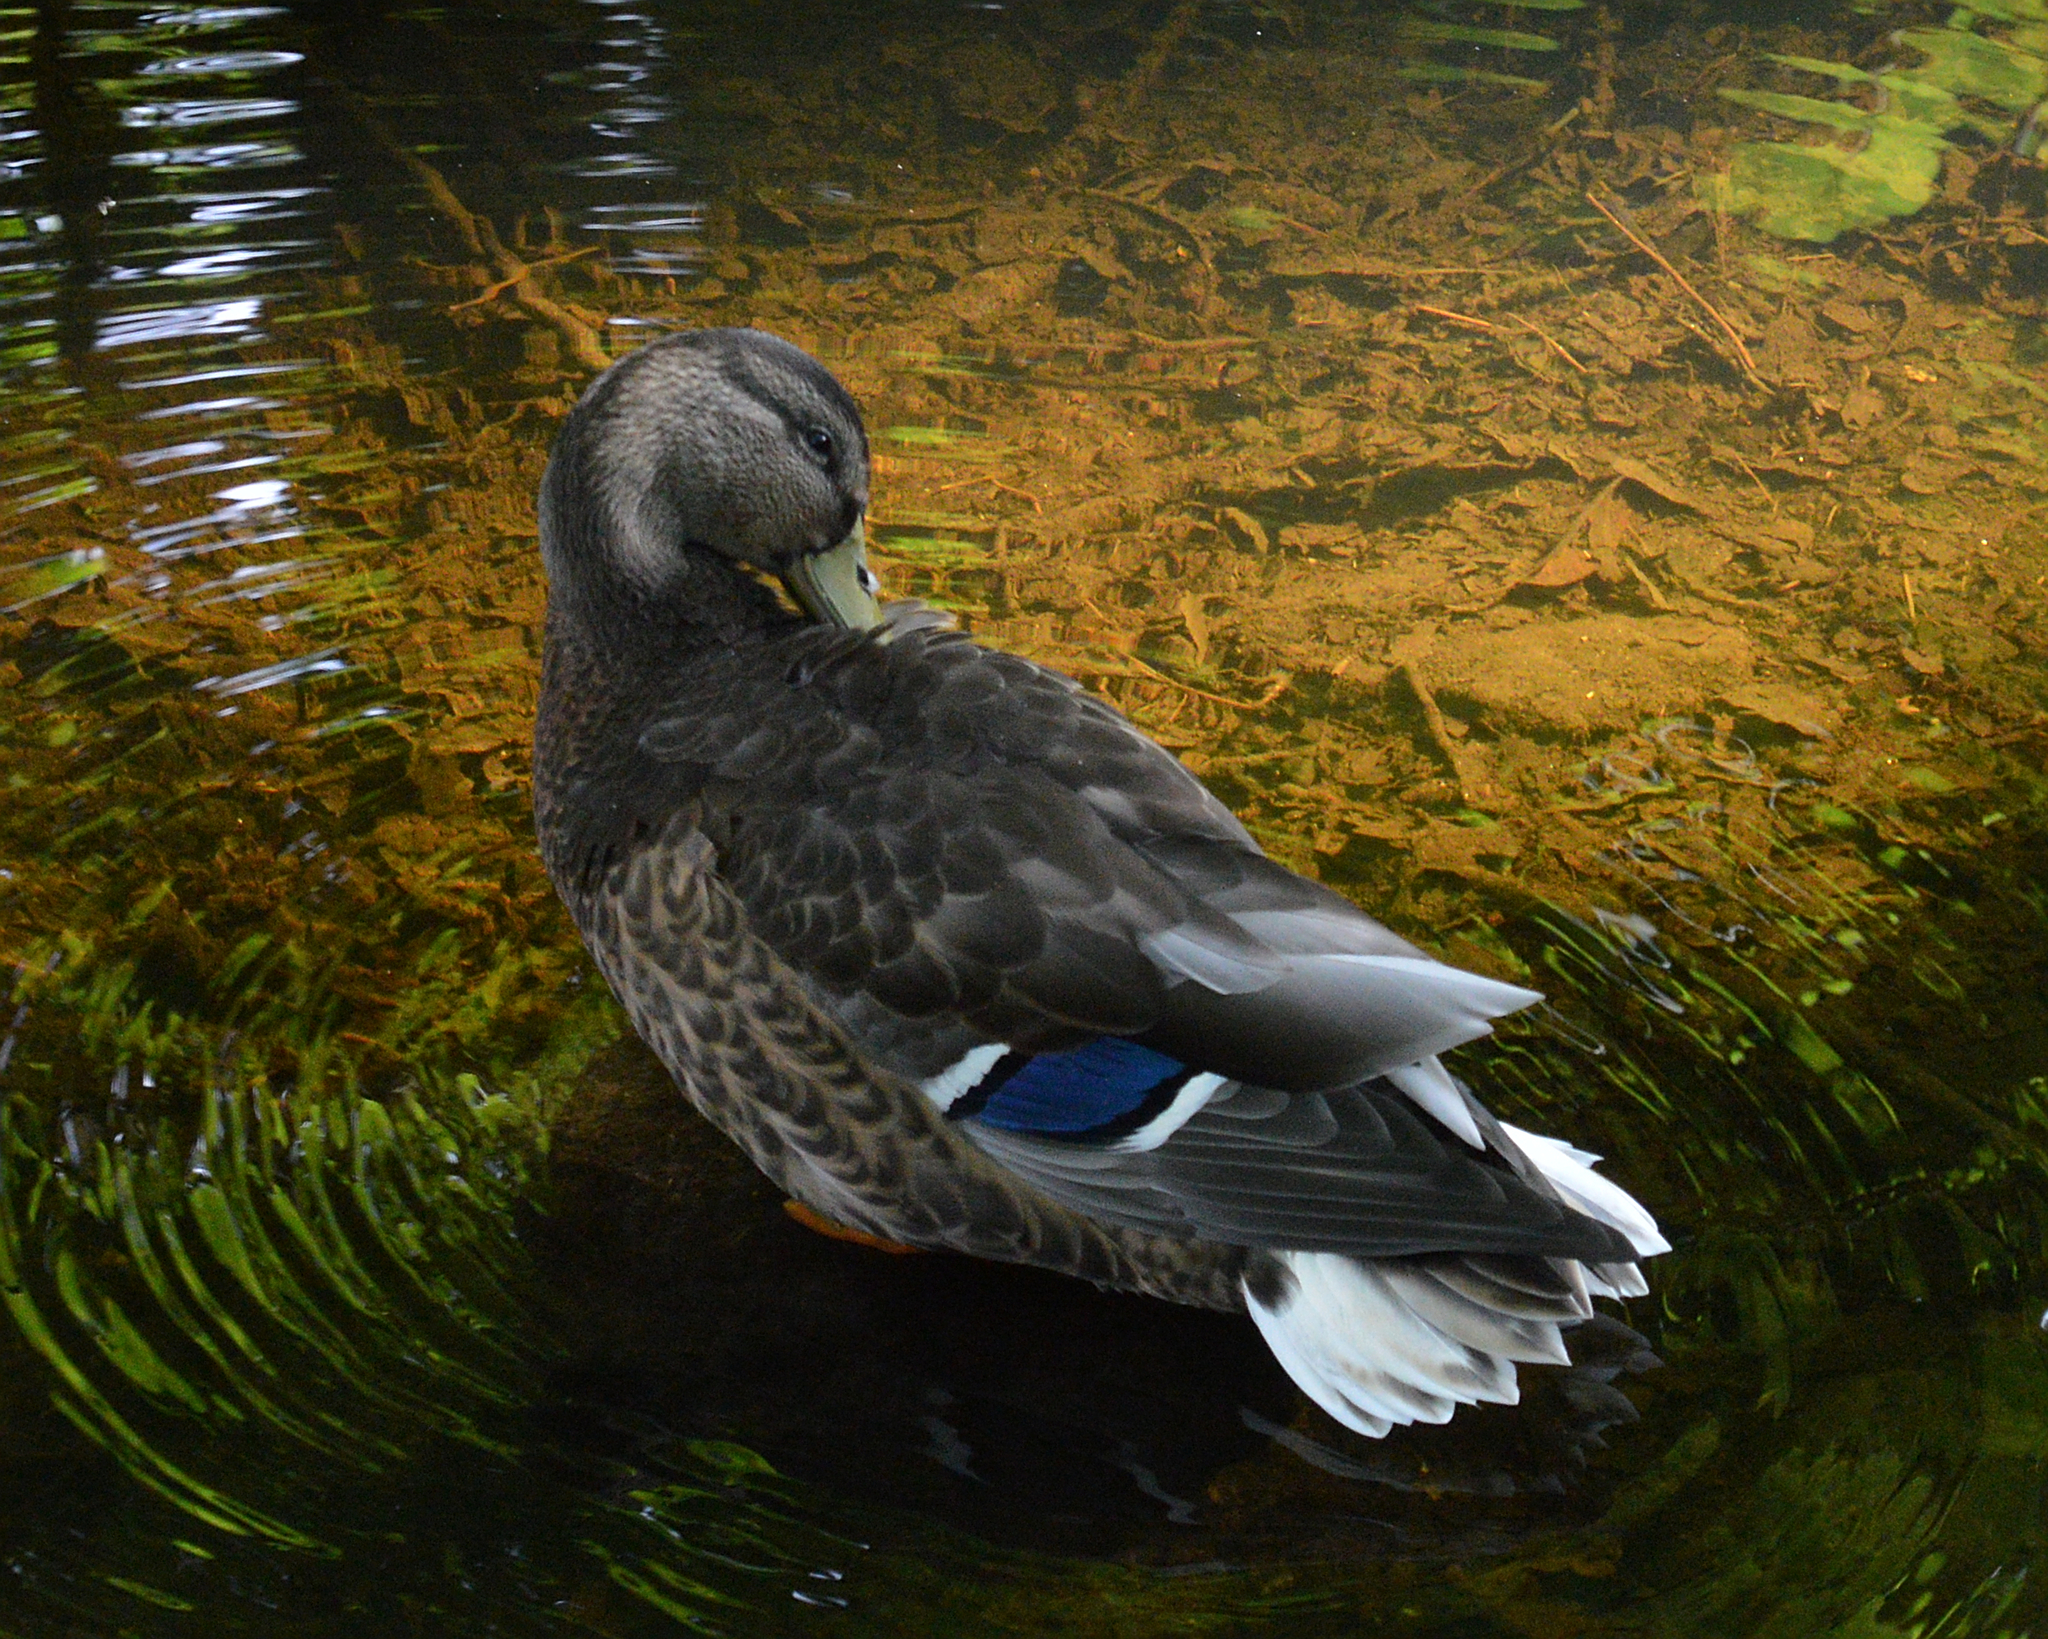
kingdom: Animalia
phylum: Chordata
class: Aves
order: Anseriformes
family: Anatidae
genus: Anas
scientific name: Anas platyrhynchos
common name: Mallard
